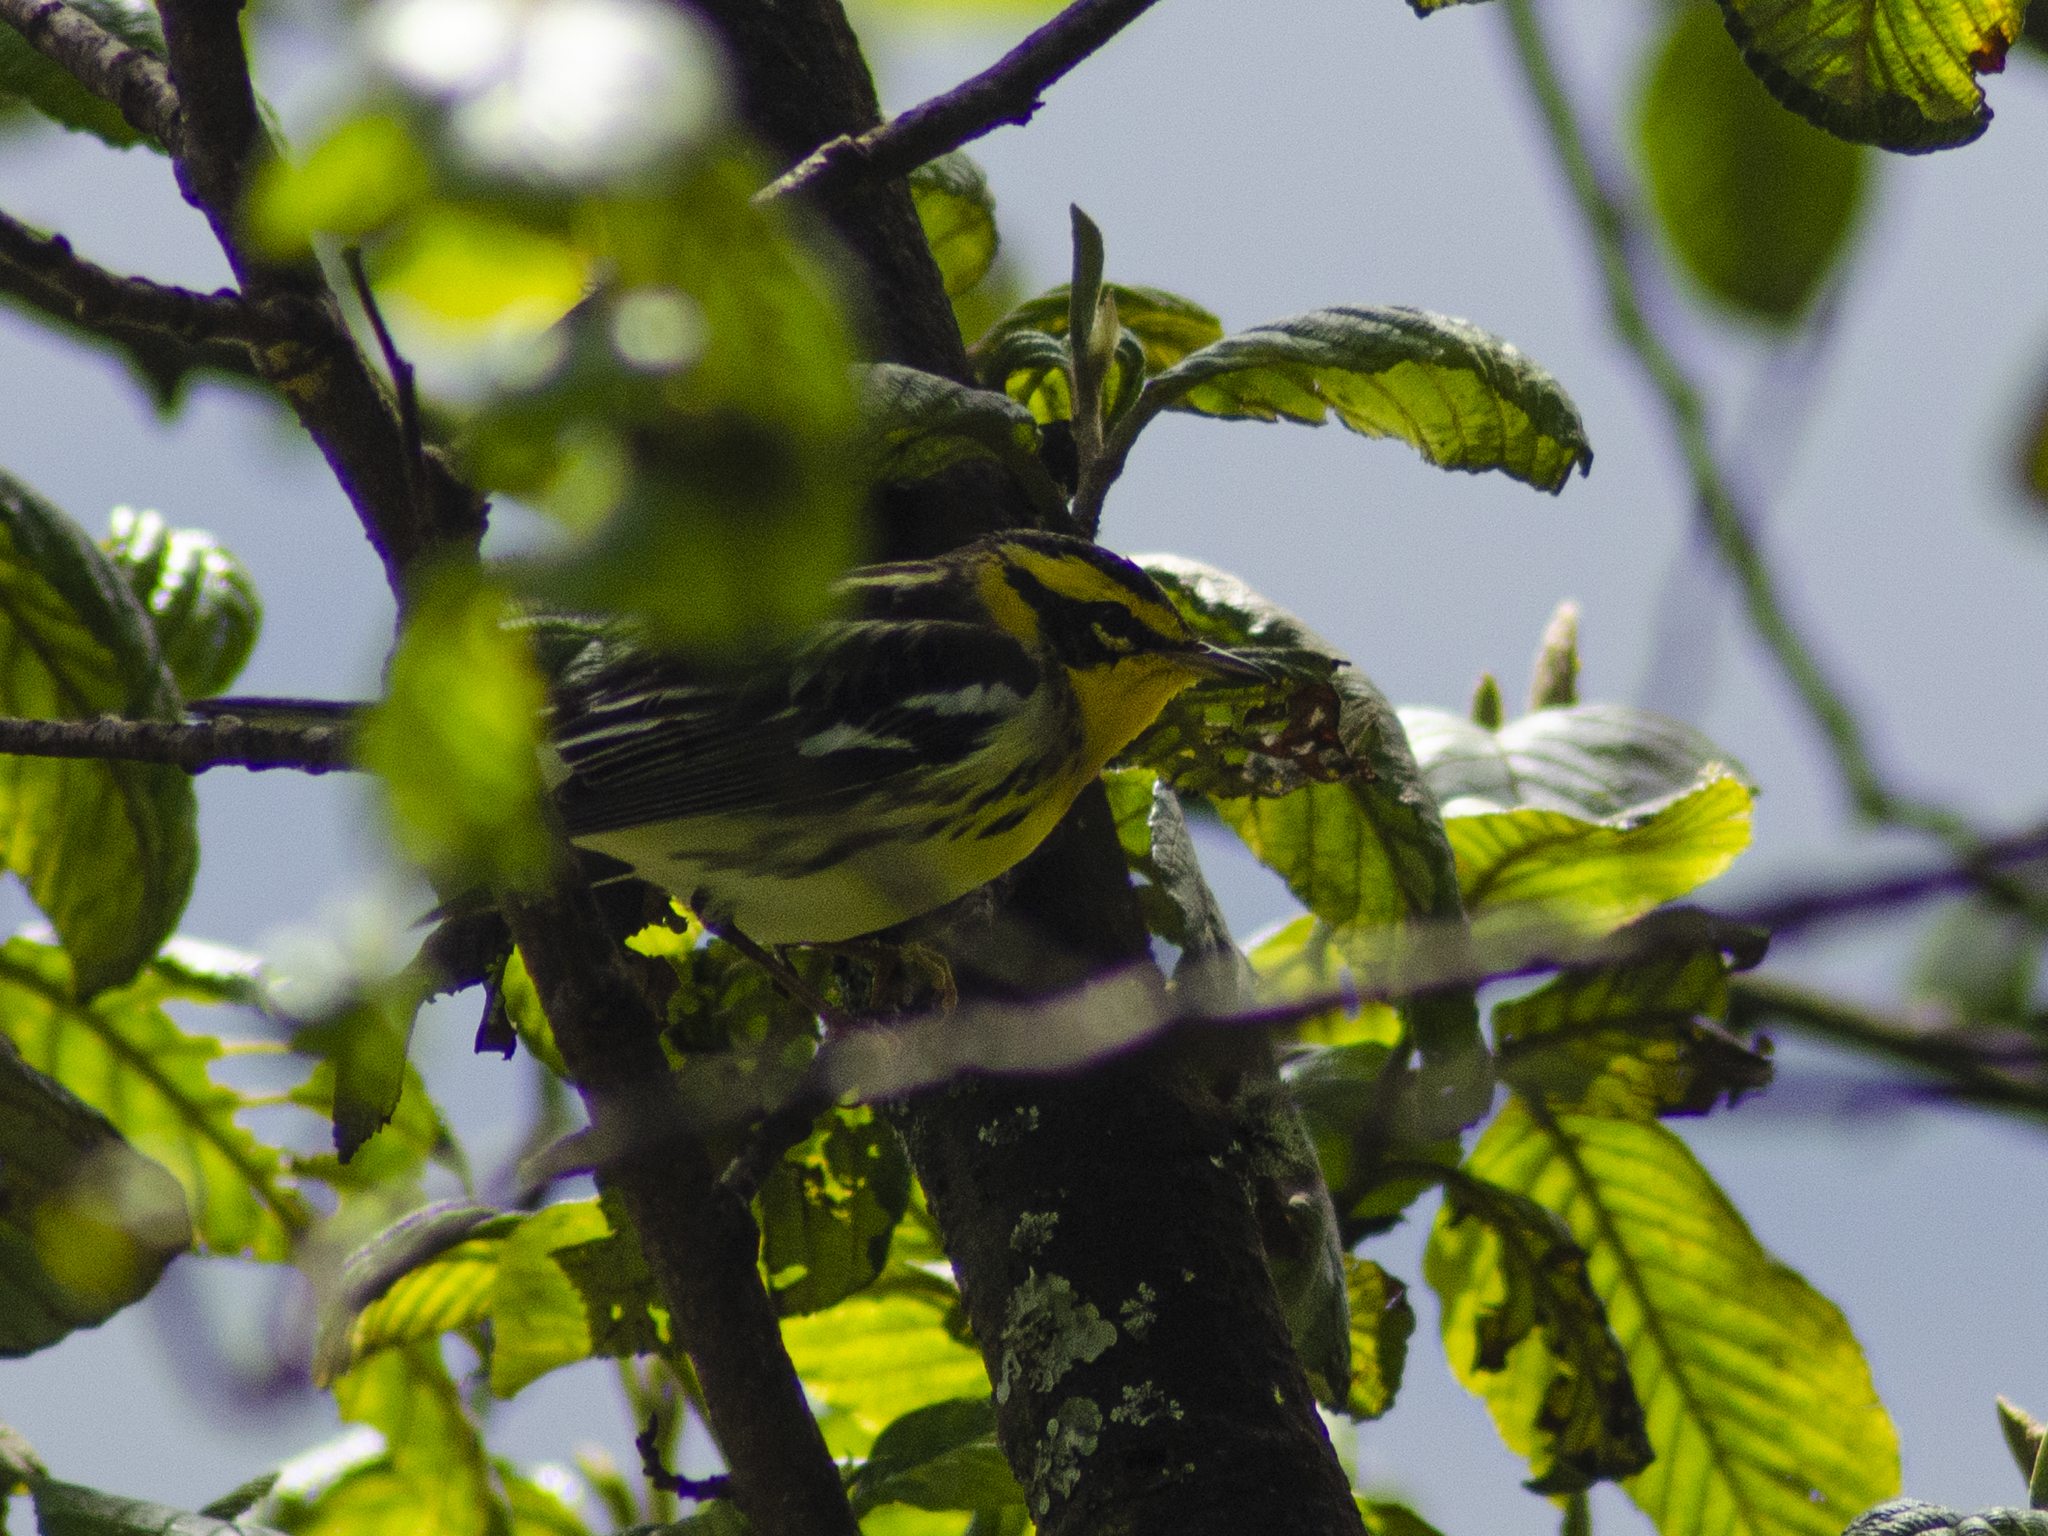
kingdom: Animalia
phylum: Chordata
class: Aves
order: Passeriformes
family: Parulidae
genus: Setophaga
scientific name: Setophaga fusca
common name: Blackburnian warbler
